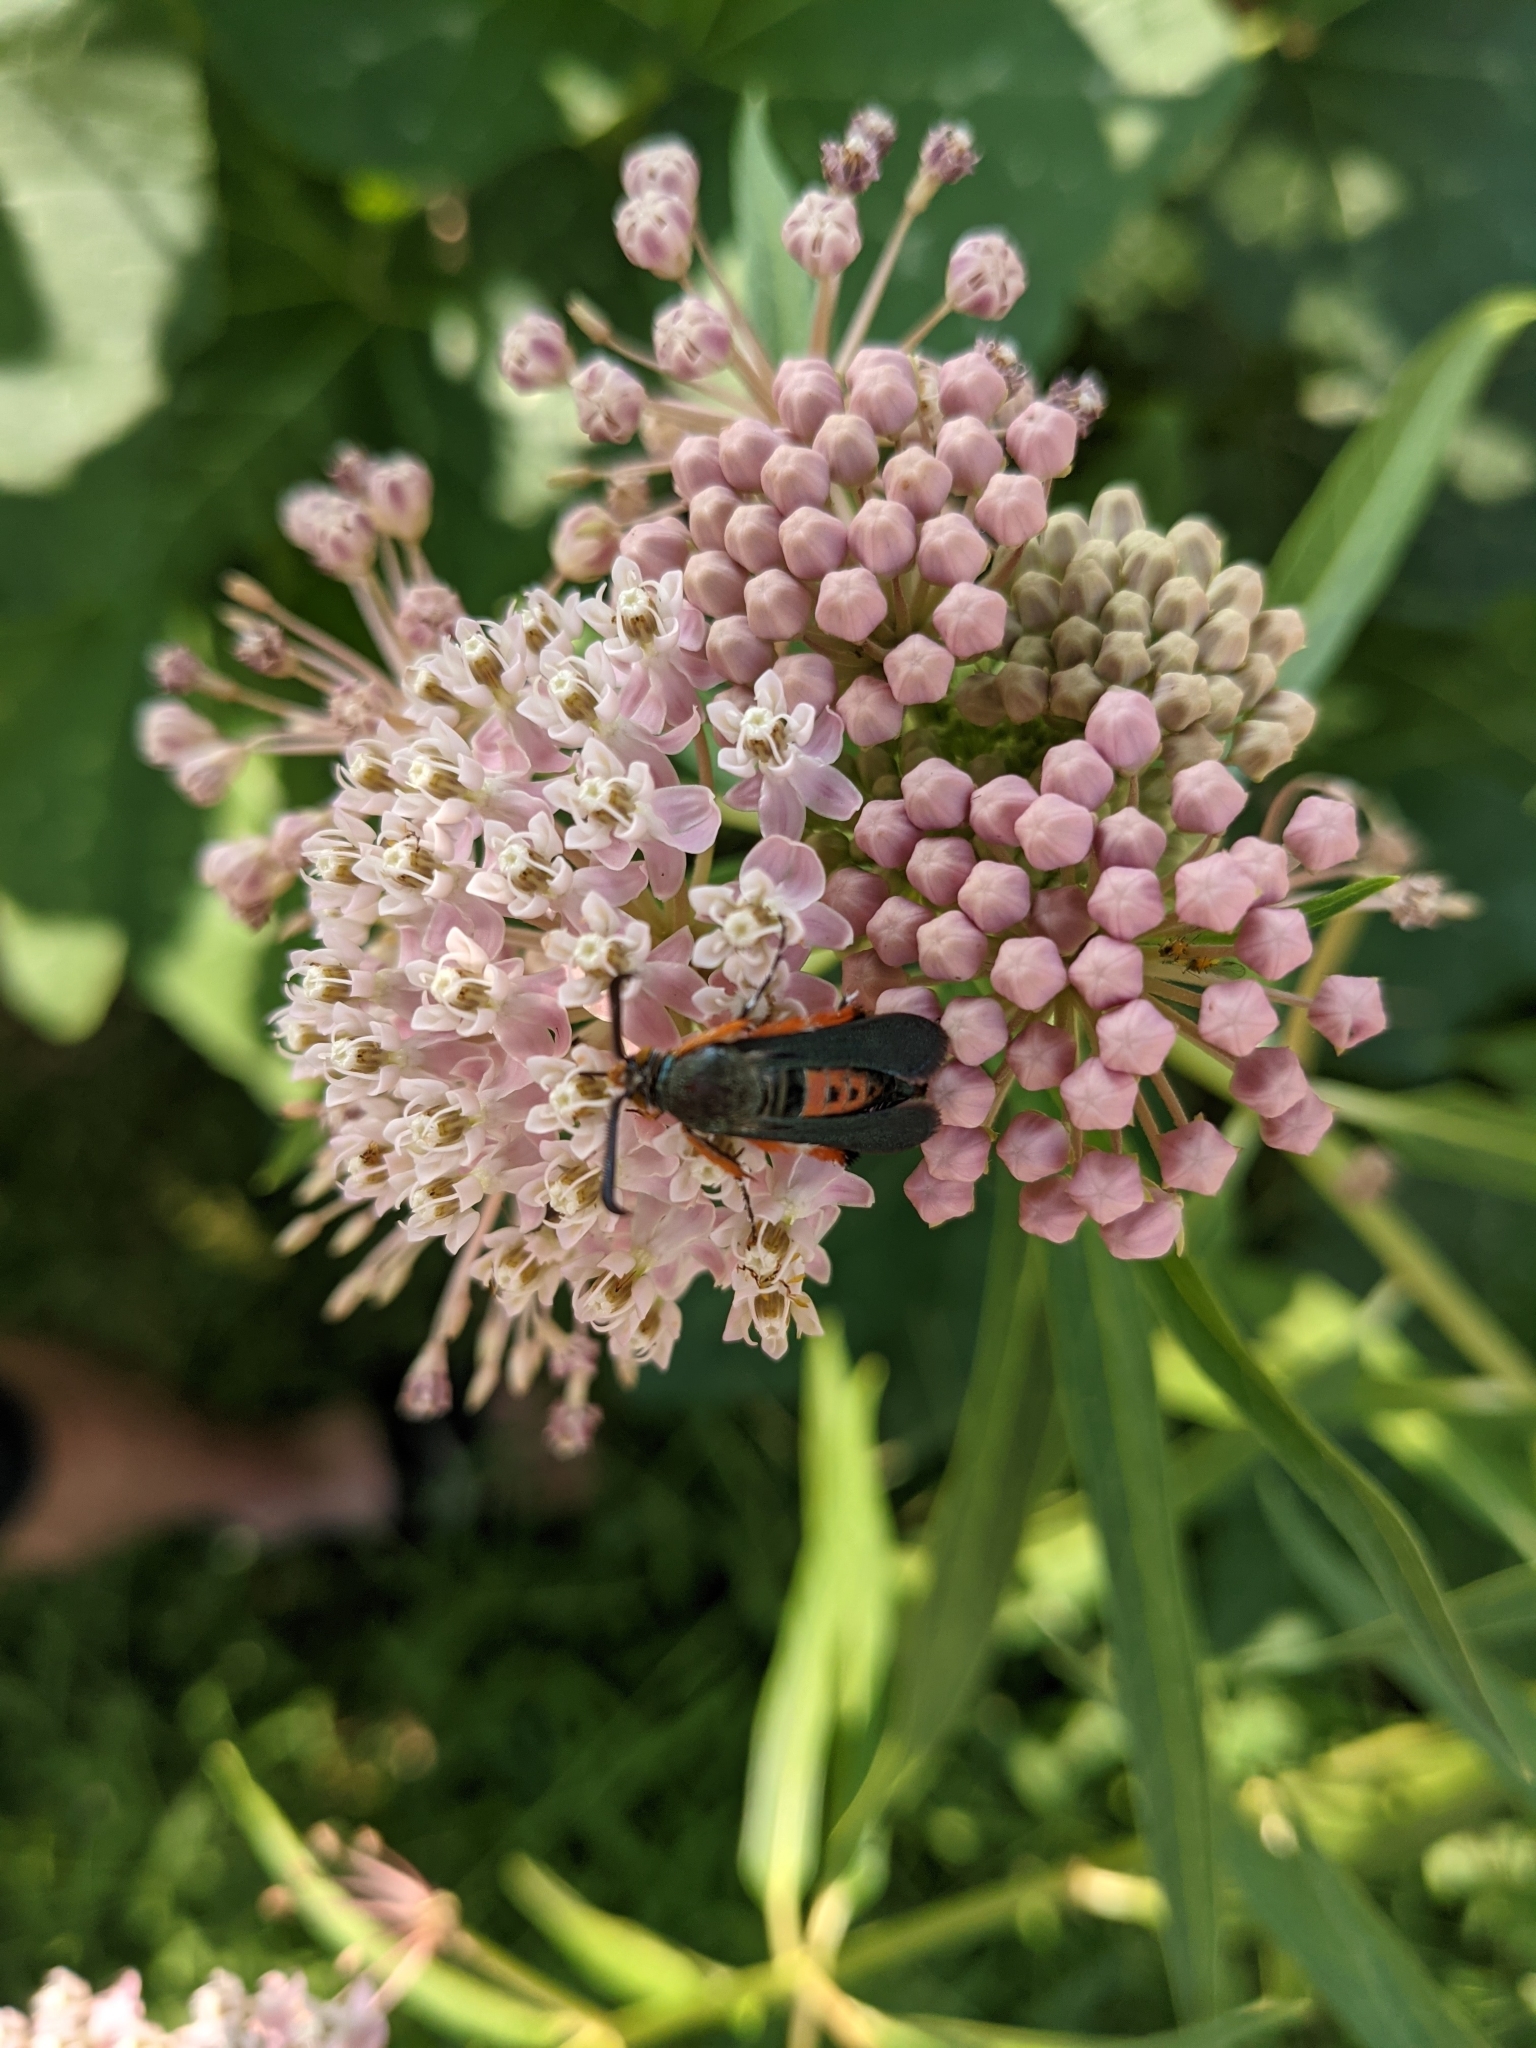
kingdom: Animalia
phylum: Arthropoda
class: Insecta
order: Lepidoptera
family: Sesiidae
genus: Eichlinia
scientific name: Eichlinia cucurbitae
